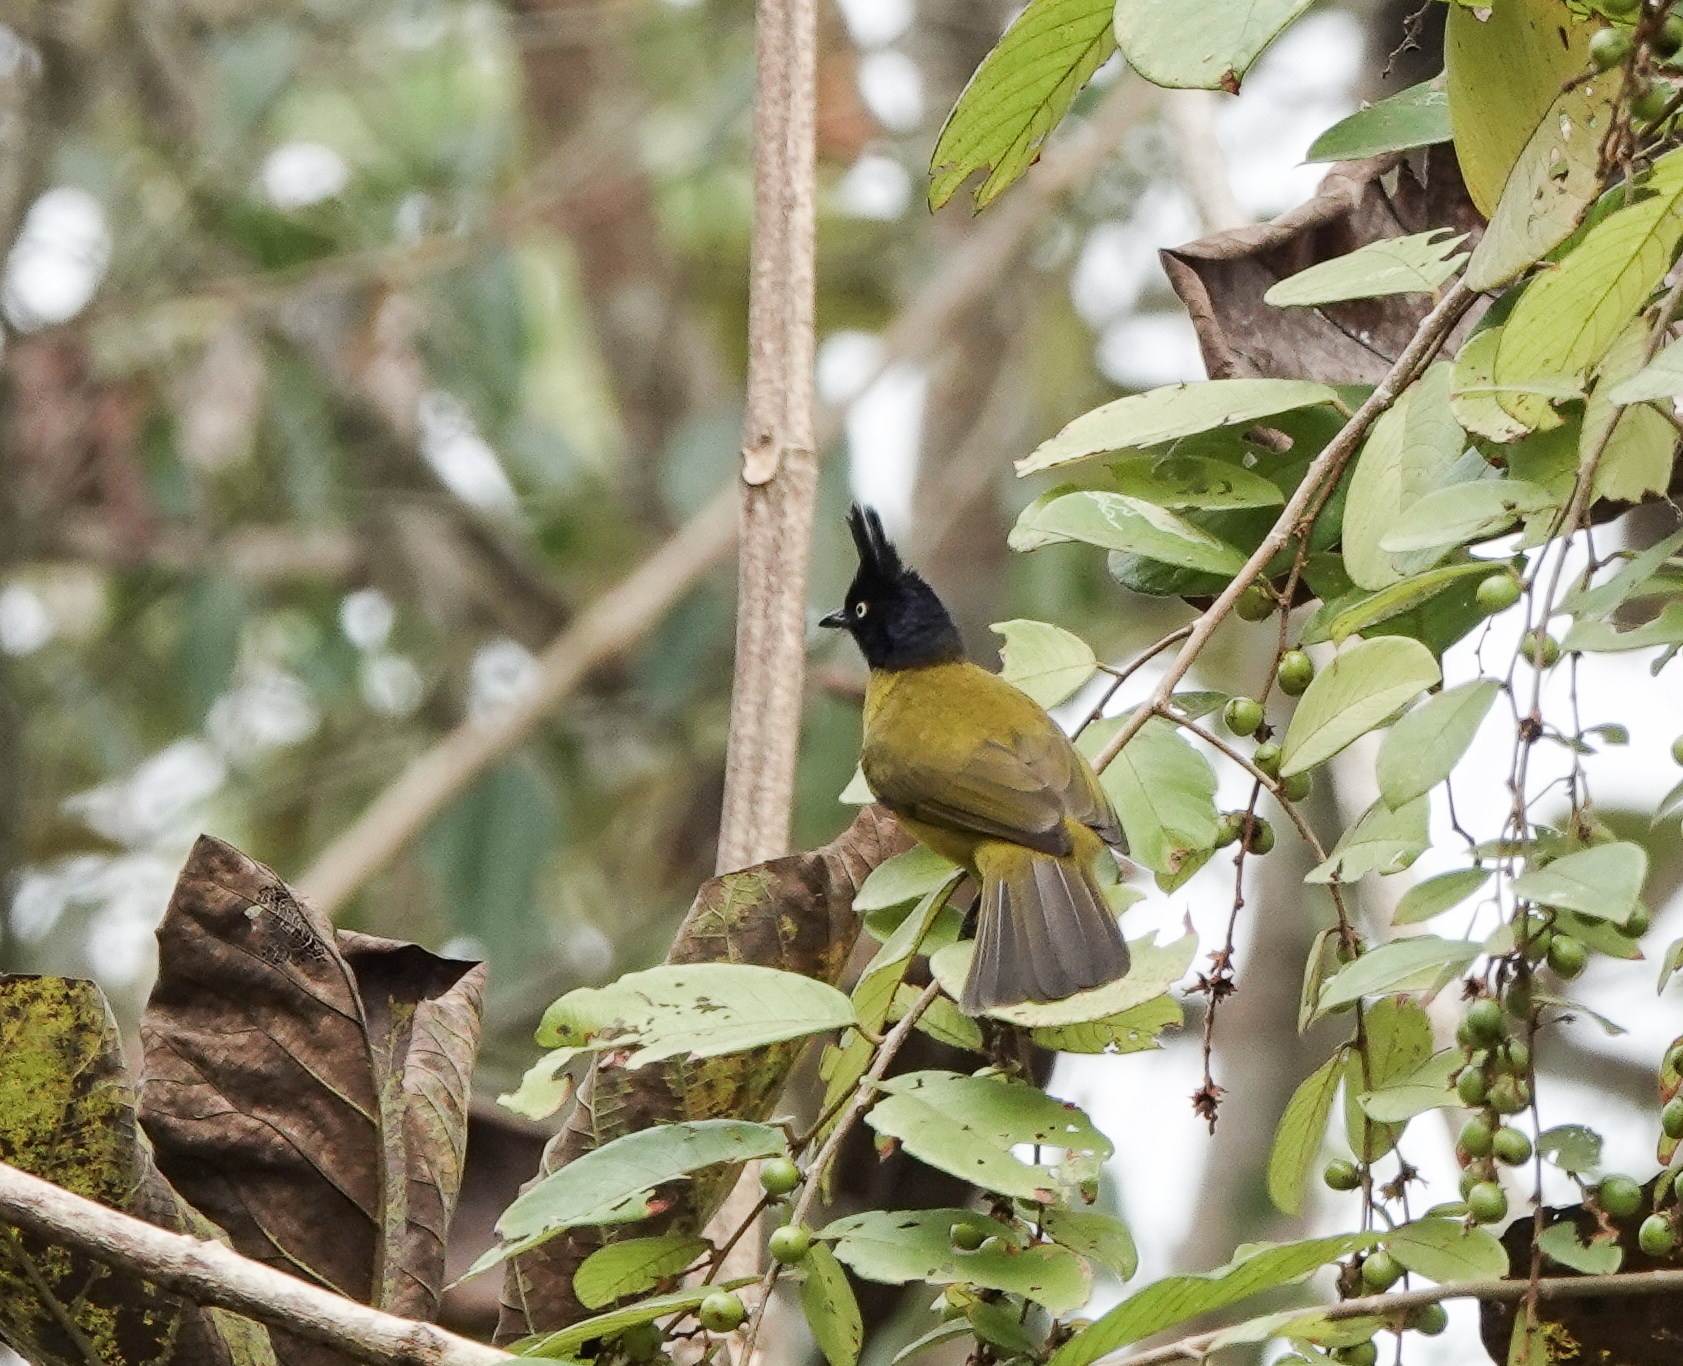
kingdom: Animalia
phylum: Chordata
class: Aves
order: Passeriformes
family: Pycnonotidae
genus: Pycnonotus
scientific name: Pycnonotus flaviventris
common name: Black-crested bulbul
